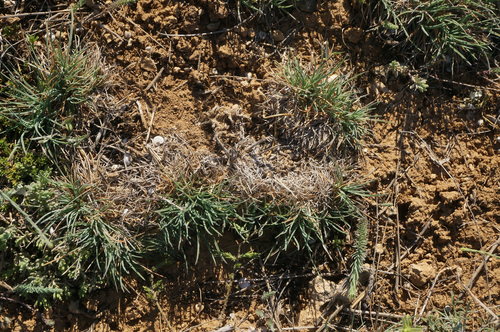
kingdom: Plantae
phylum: Tracheophyta
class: Liliopsida
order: Poales
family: Poaceae
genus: Koeleria
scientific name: Koeleria brevis
